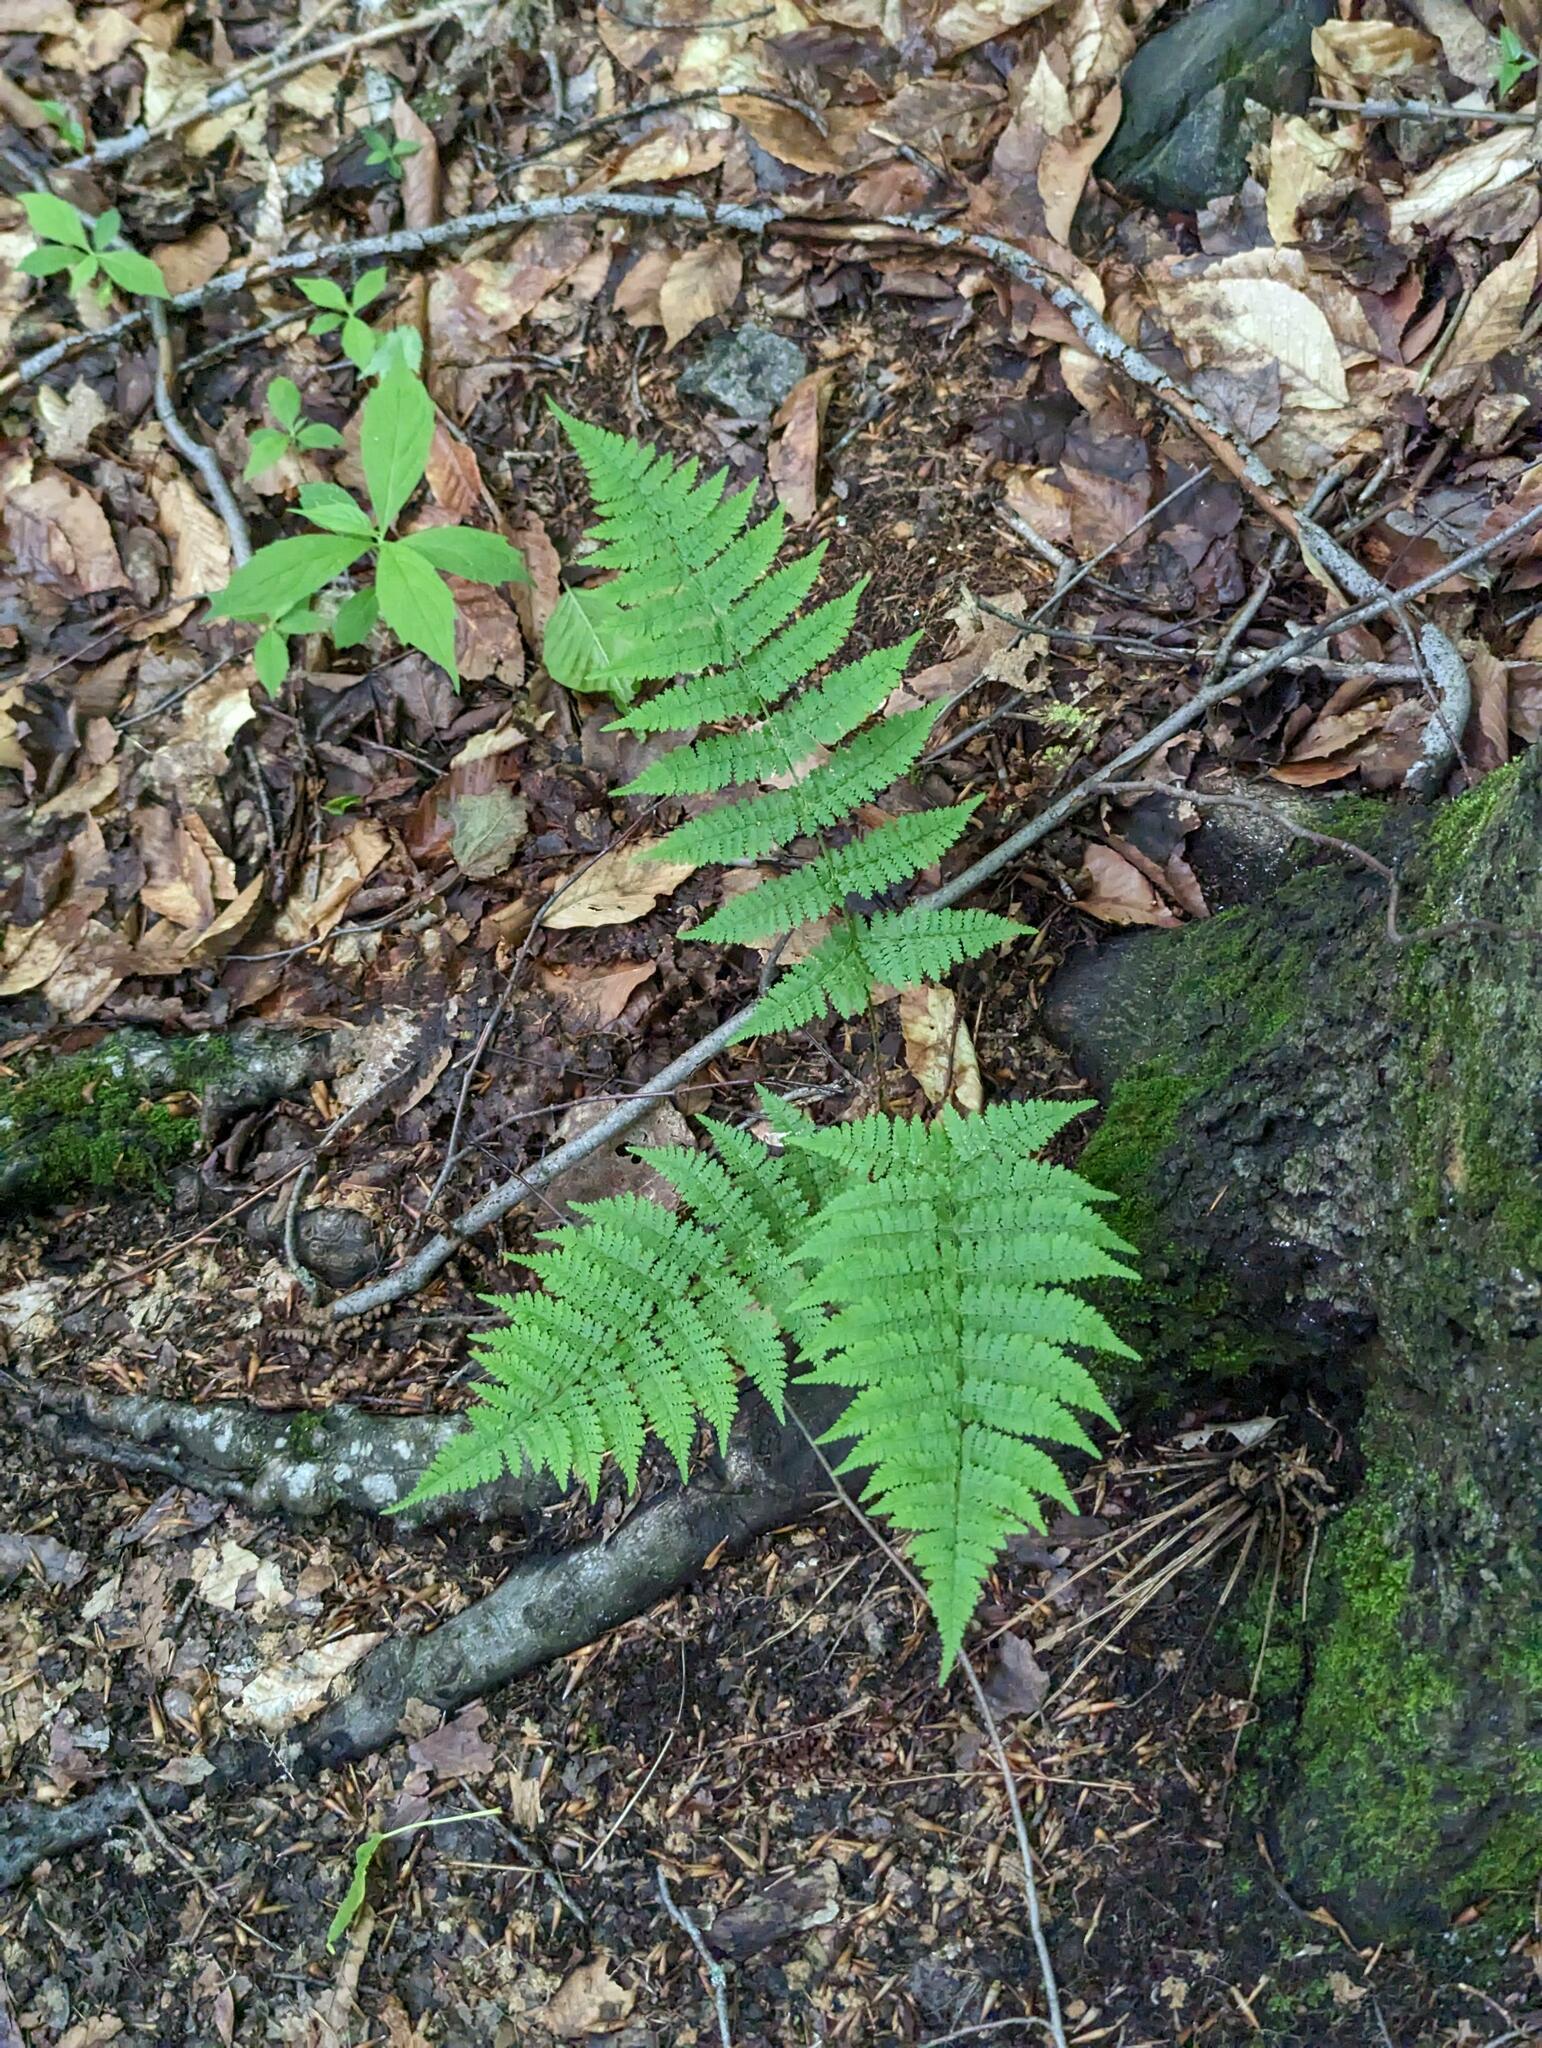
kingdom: Plantae
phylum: Tracheophyta
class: Polypodiopsida
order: Polypodiales
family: Dryopteridaceae
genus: Dryopteris
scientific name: Dryopteris intermedia
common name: Evergreen wood fern
